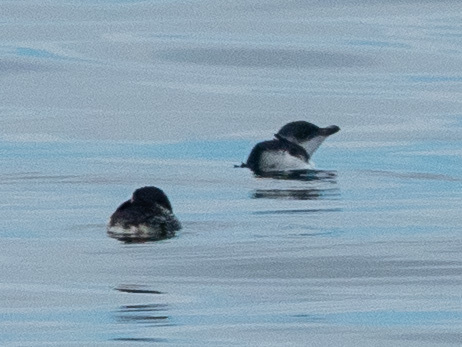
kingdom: Animalia
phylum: Chordata
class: Aves
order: Sphenisciformes
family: Spheniscidae
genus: Eudyptula
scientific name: Eudyptula minor
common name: Little penguin
